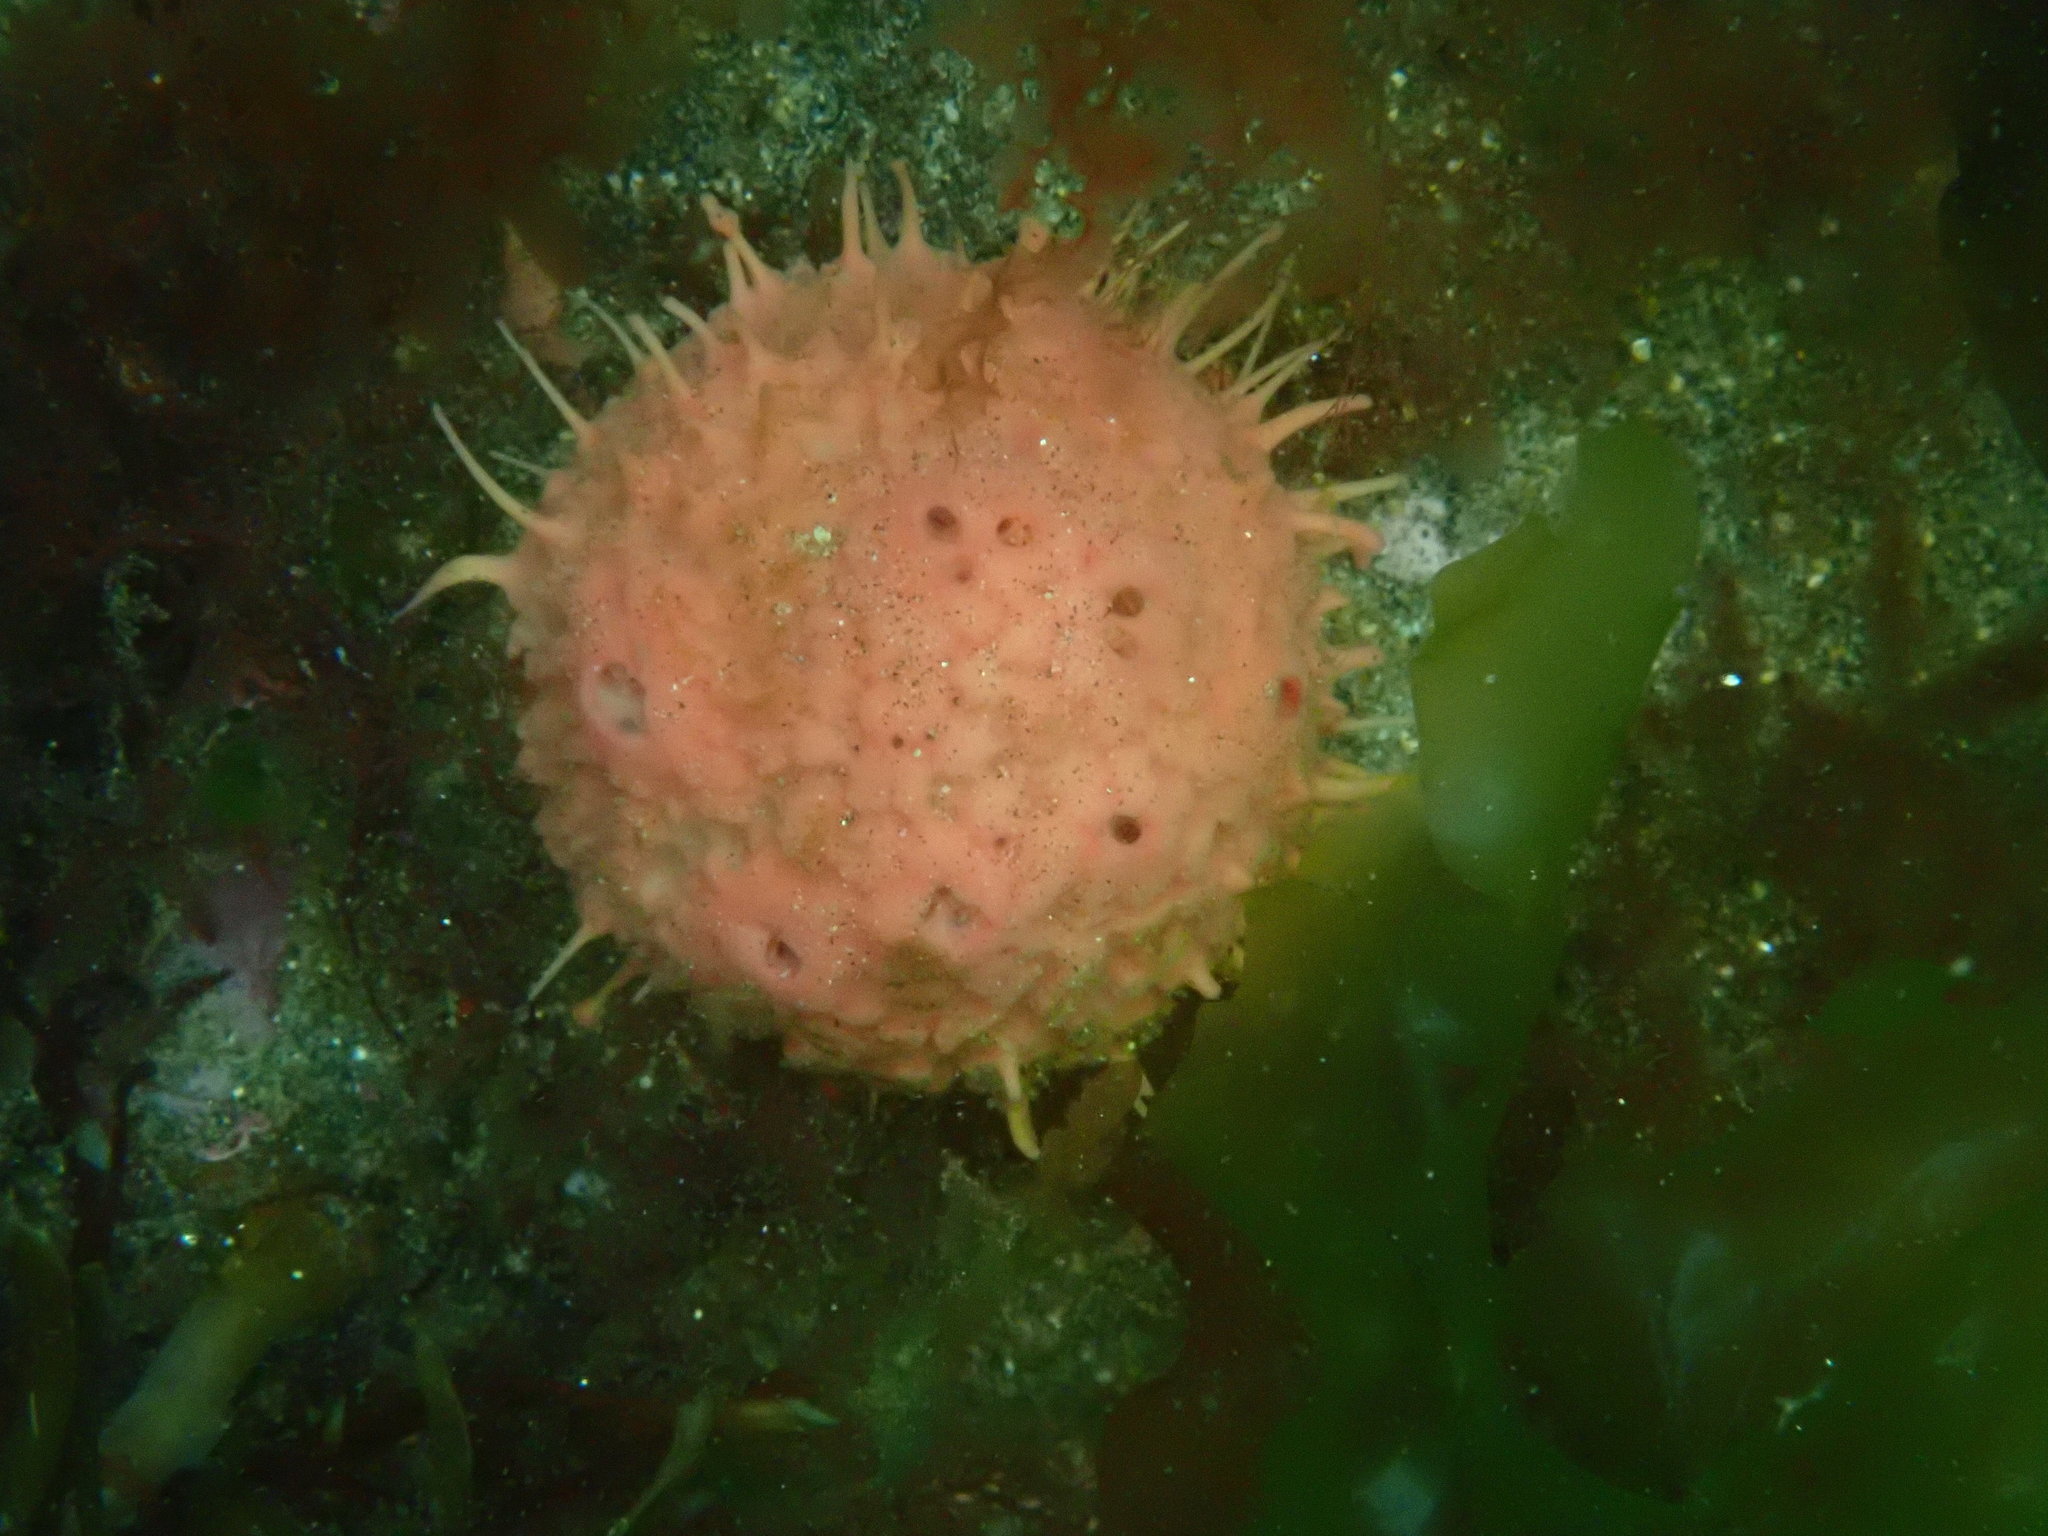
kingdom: Animalia
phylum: Porifera
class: Demospongiae
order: Tethyida
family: Tethyidae
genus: Tethya
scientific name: Tethya bergquistae
